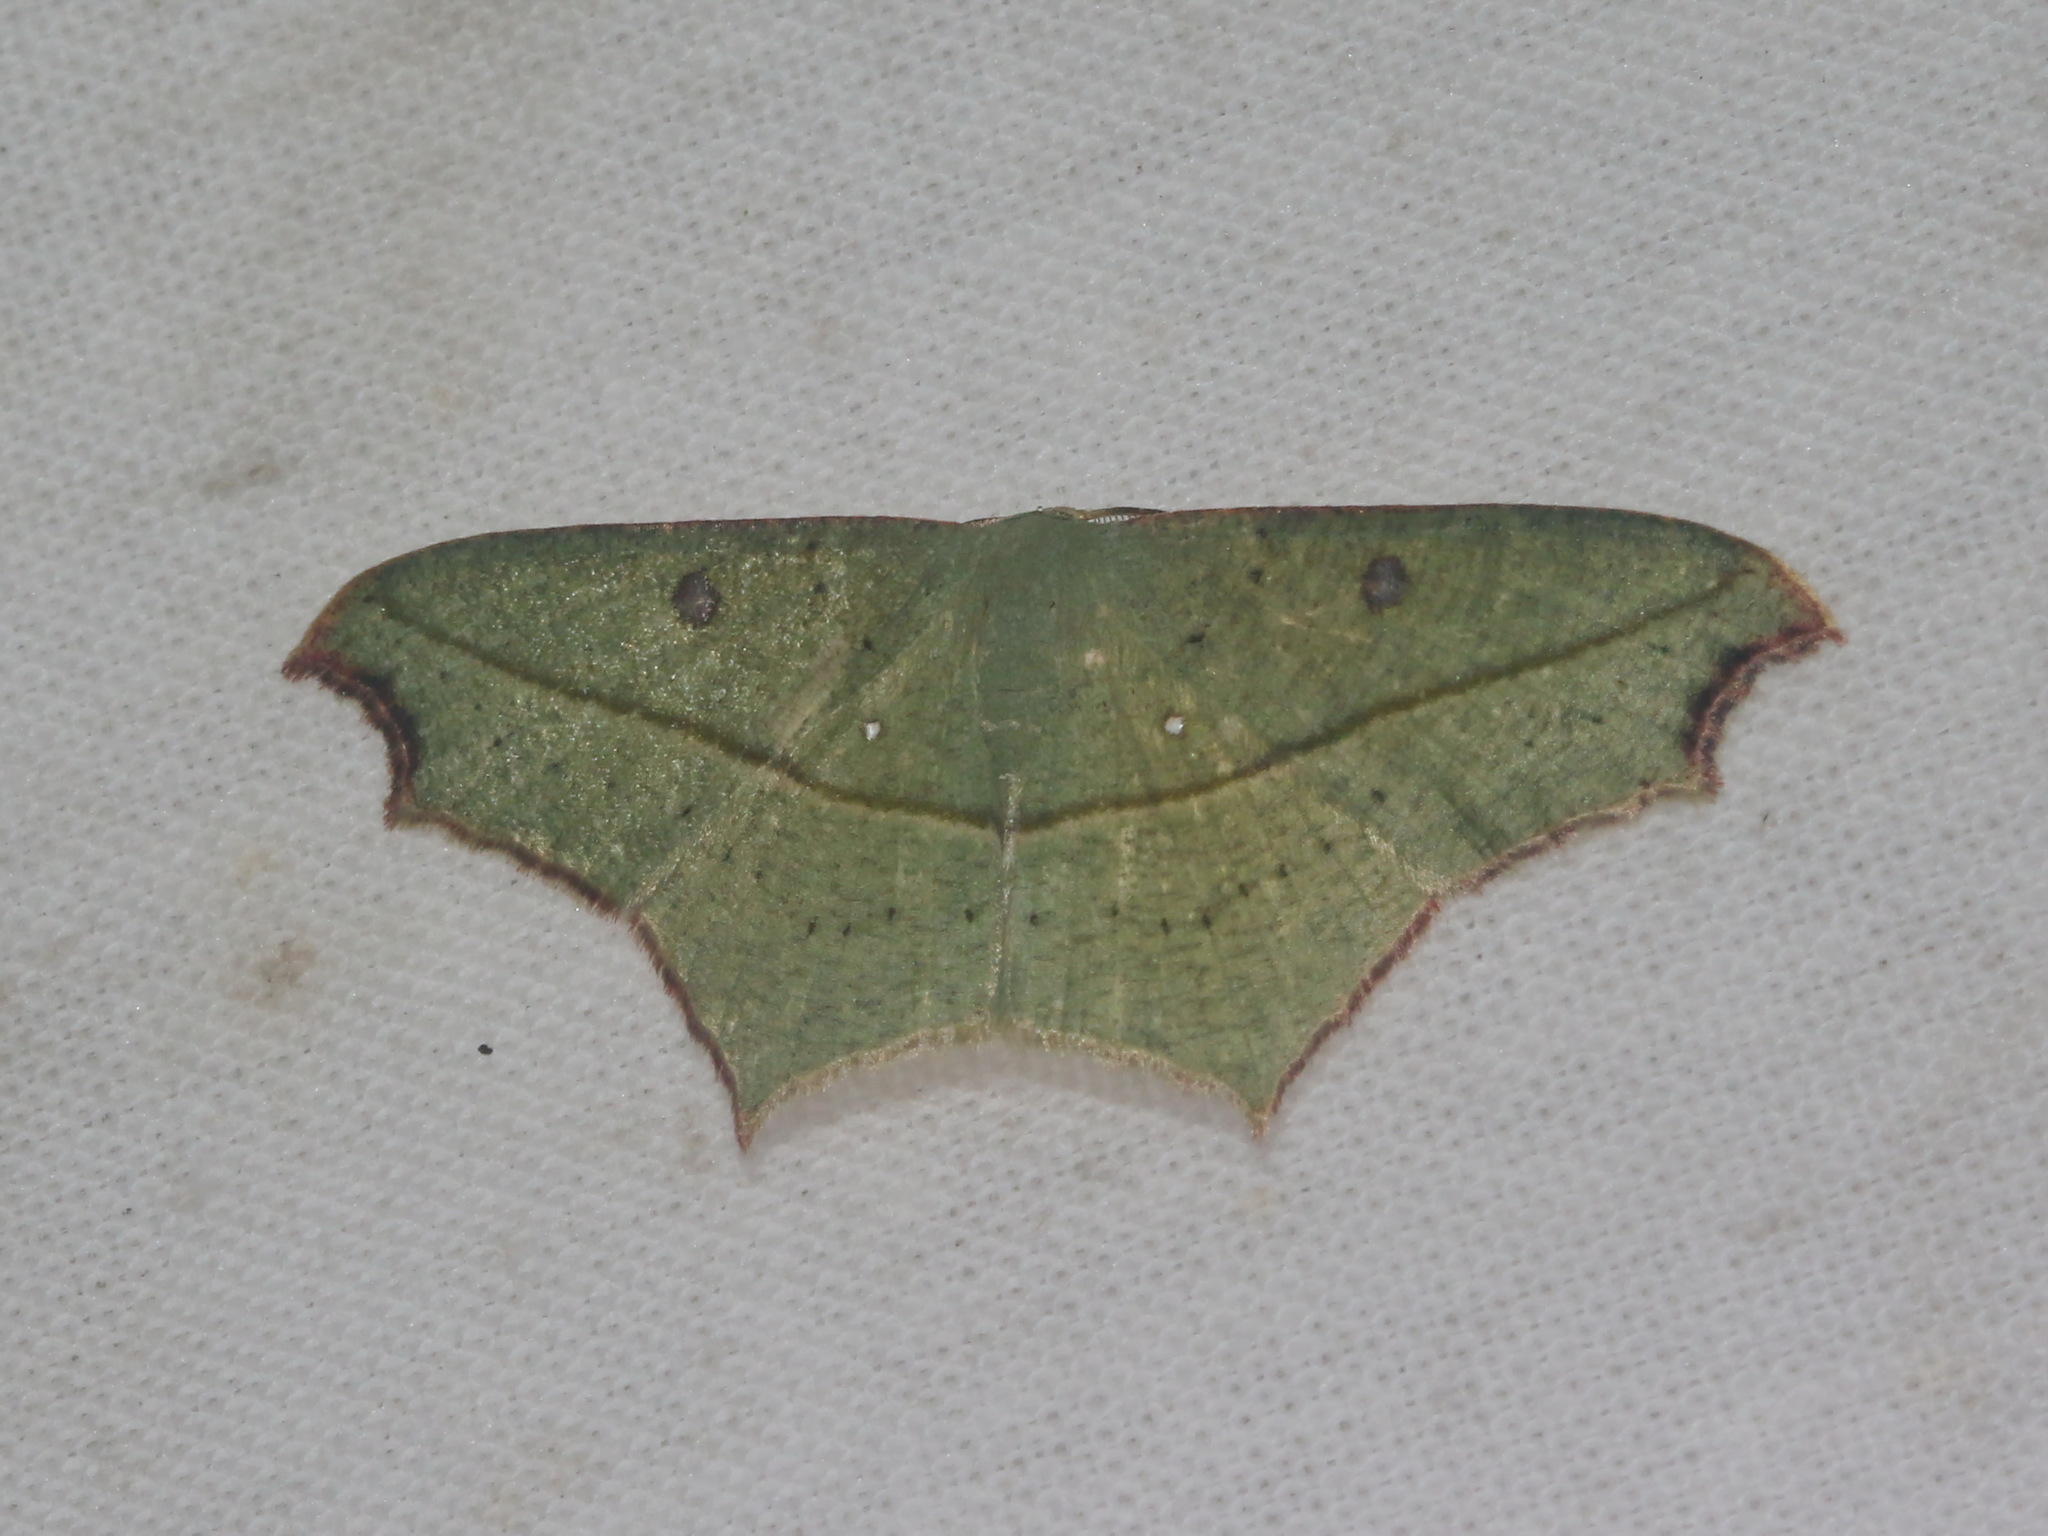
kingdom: Animalia
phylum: Arthropoda
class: Insecta
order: Lepidoptera
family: Geometridae
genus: Traminda
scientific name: Traminda aventiaria
